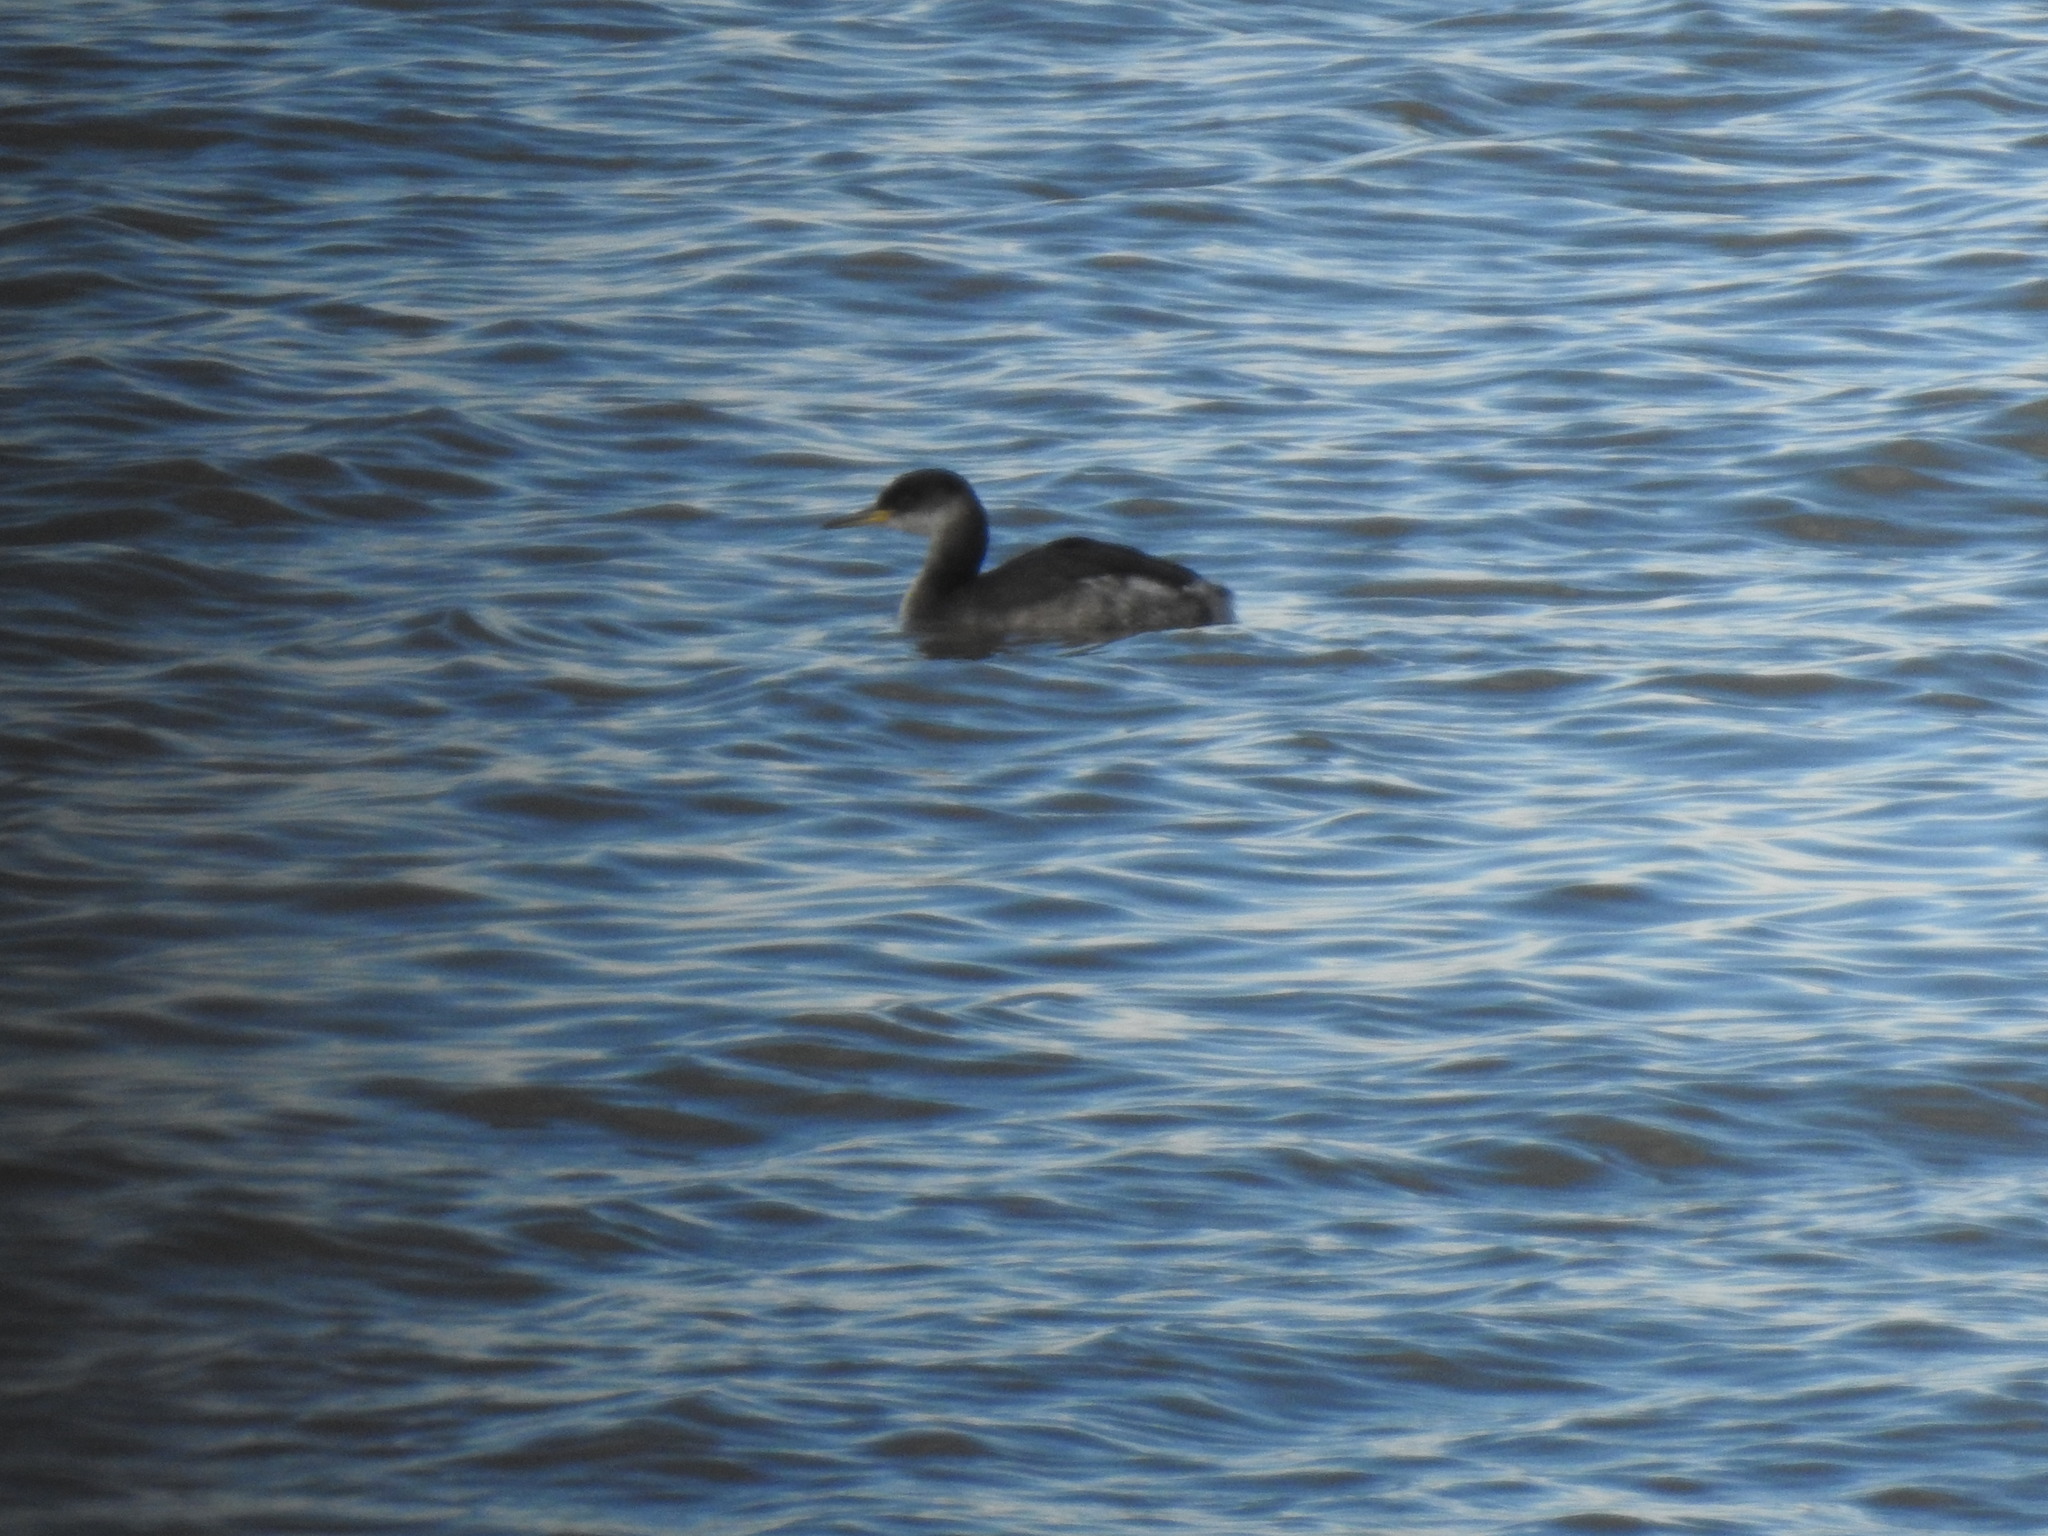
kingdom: Animalia
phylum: Chordata
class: Aves
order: Podicipediformes
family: Podicipedidae
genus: Podiceps
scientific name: Podiceps grisegena
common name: Red-necked grebe
